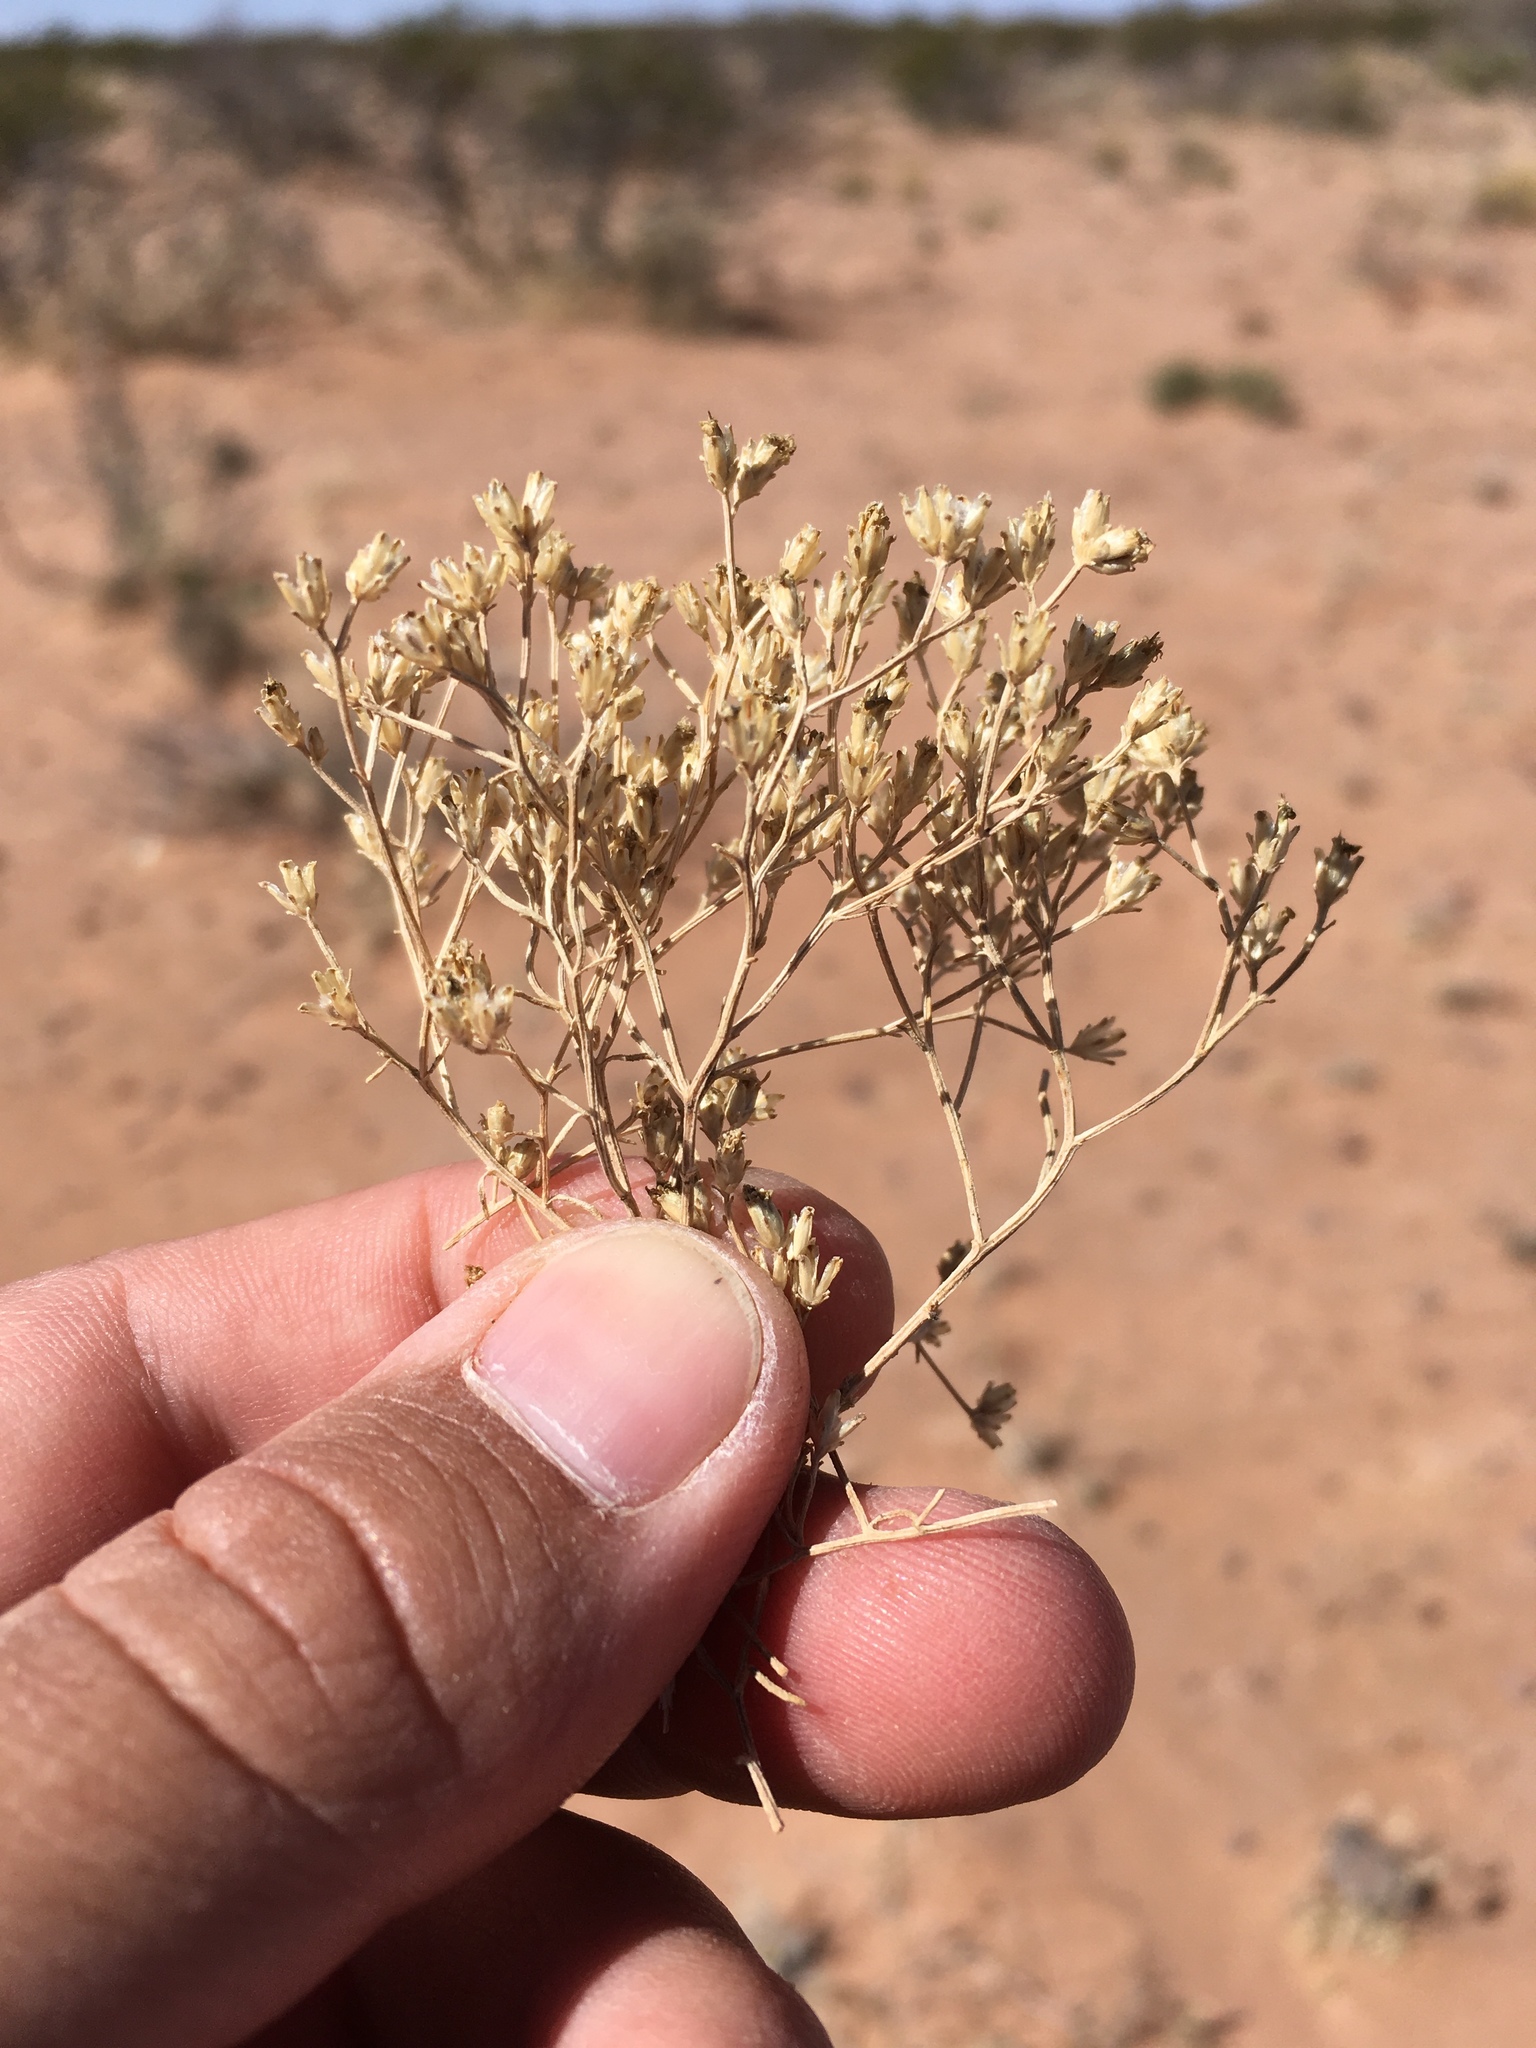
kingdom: Plantae
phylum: Tracheophyta
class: Magnoliopsida
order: Asterales
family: Asteraceae
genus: Gutierrezia
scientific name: Gutierrezia sarothrae
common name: Broom snakeweed
